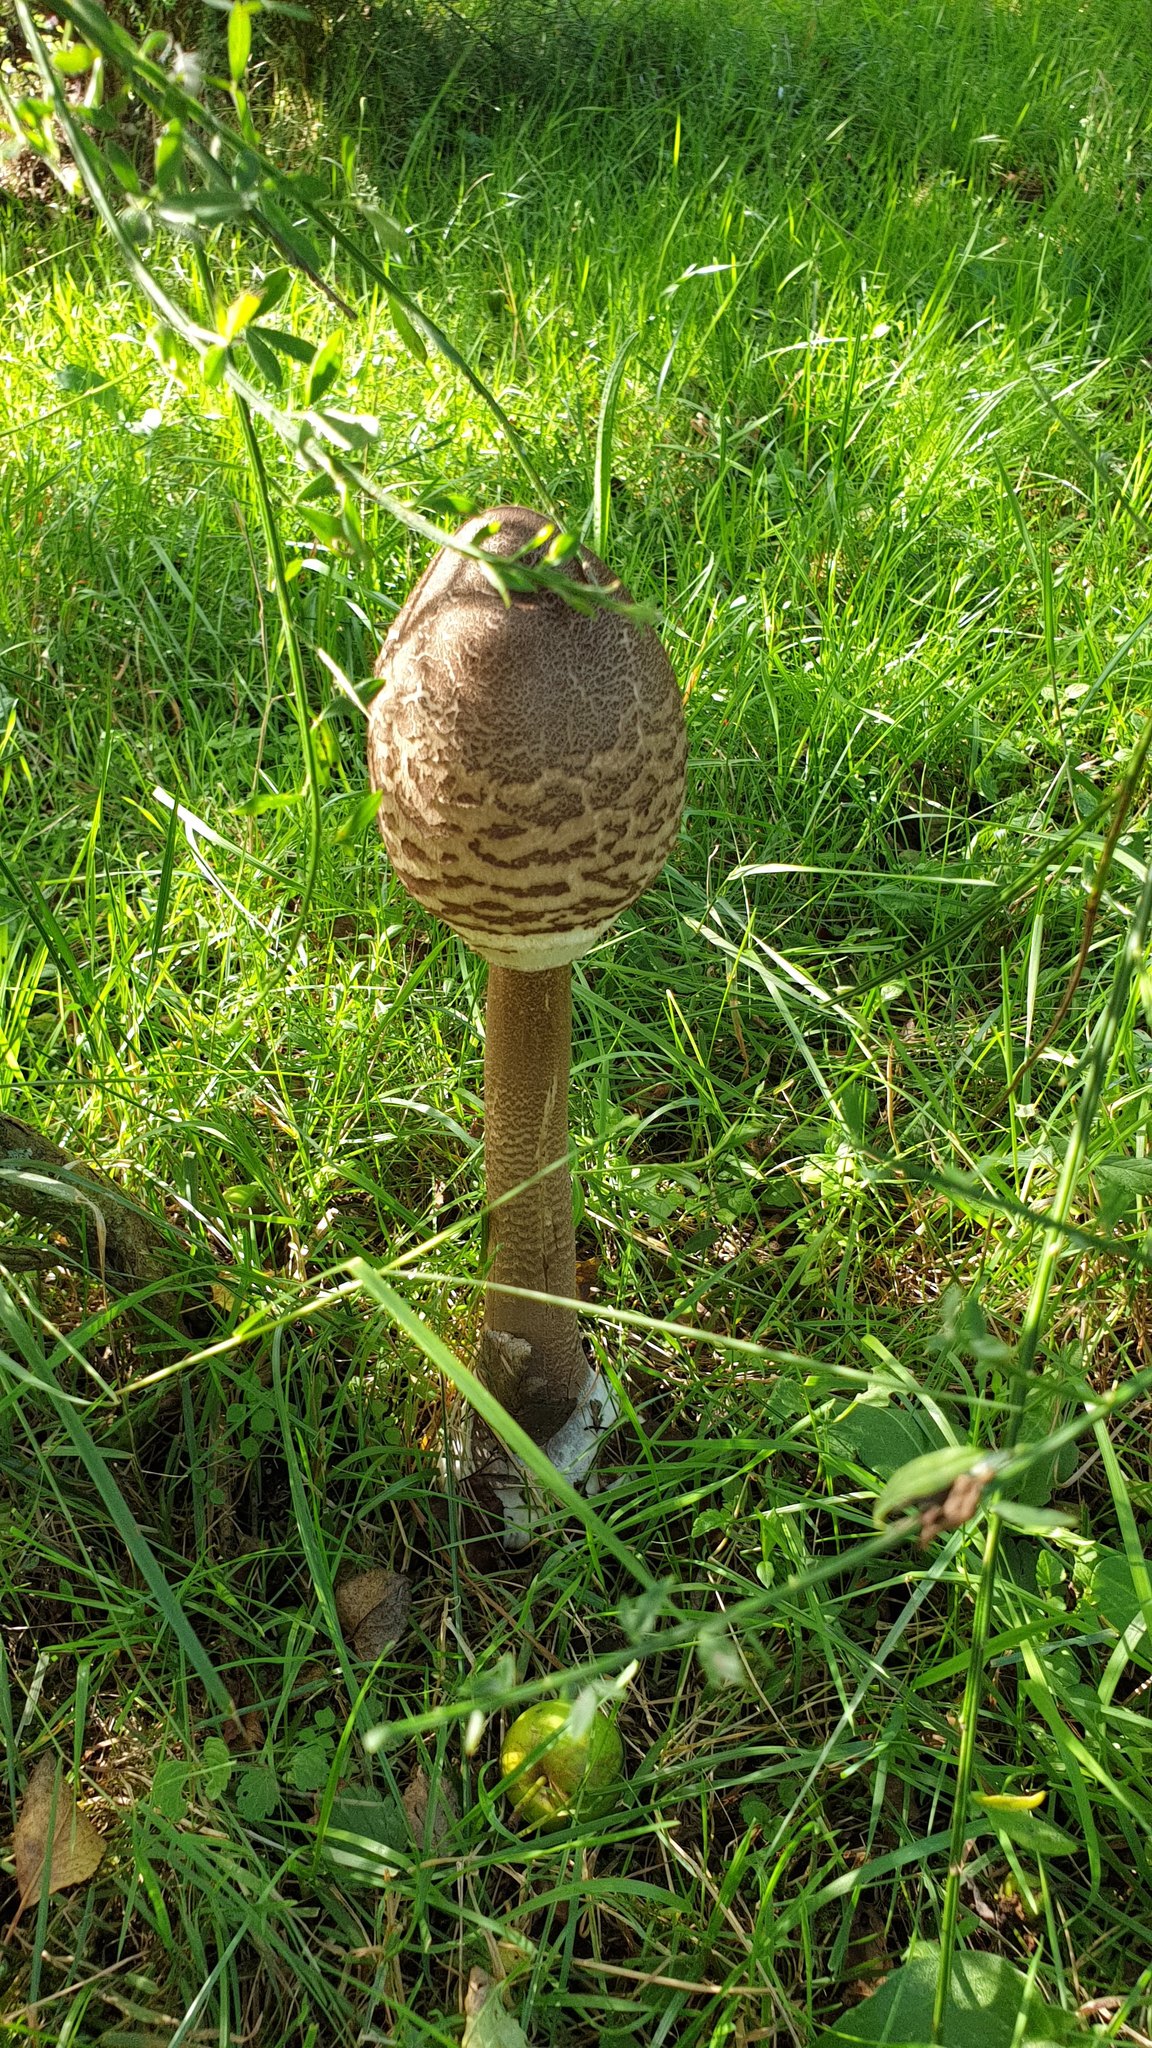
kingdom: Fungi
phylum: Basidiomycota
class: Agaricomycetes
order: Agaricales
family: Agaricaceae
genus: Macrolepiota
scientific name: Macrolepiota procera
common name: Parasol
